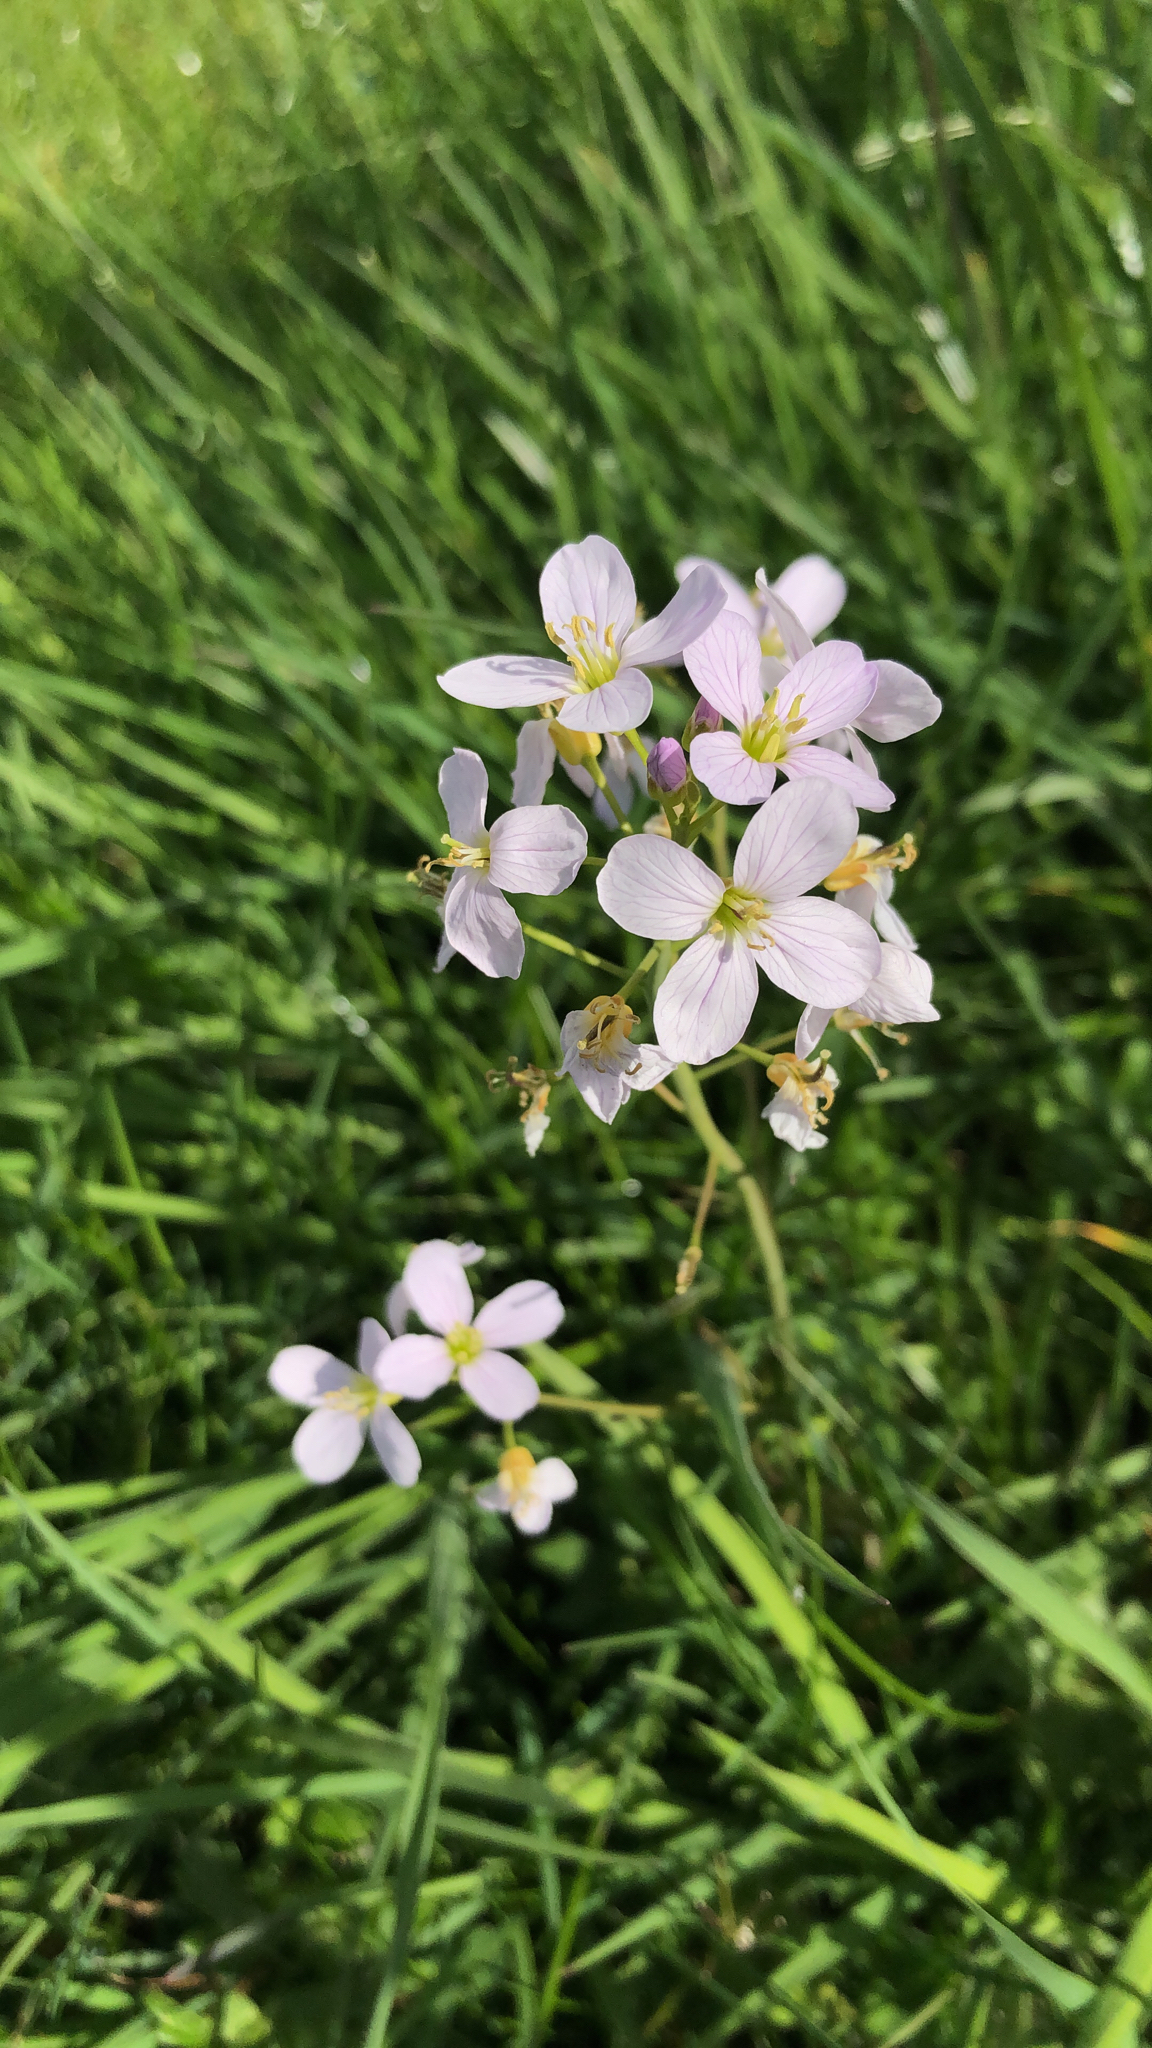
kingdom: Plantae
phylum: Tracheophyta
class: Magnoliopsida
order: Brassicales
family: Brassicaceae
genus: Cardamine
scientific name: Cardamine pratensis
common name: Cuckoo flower
